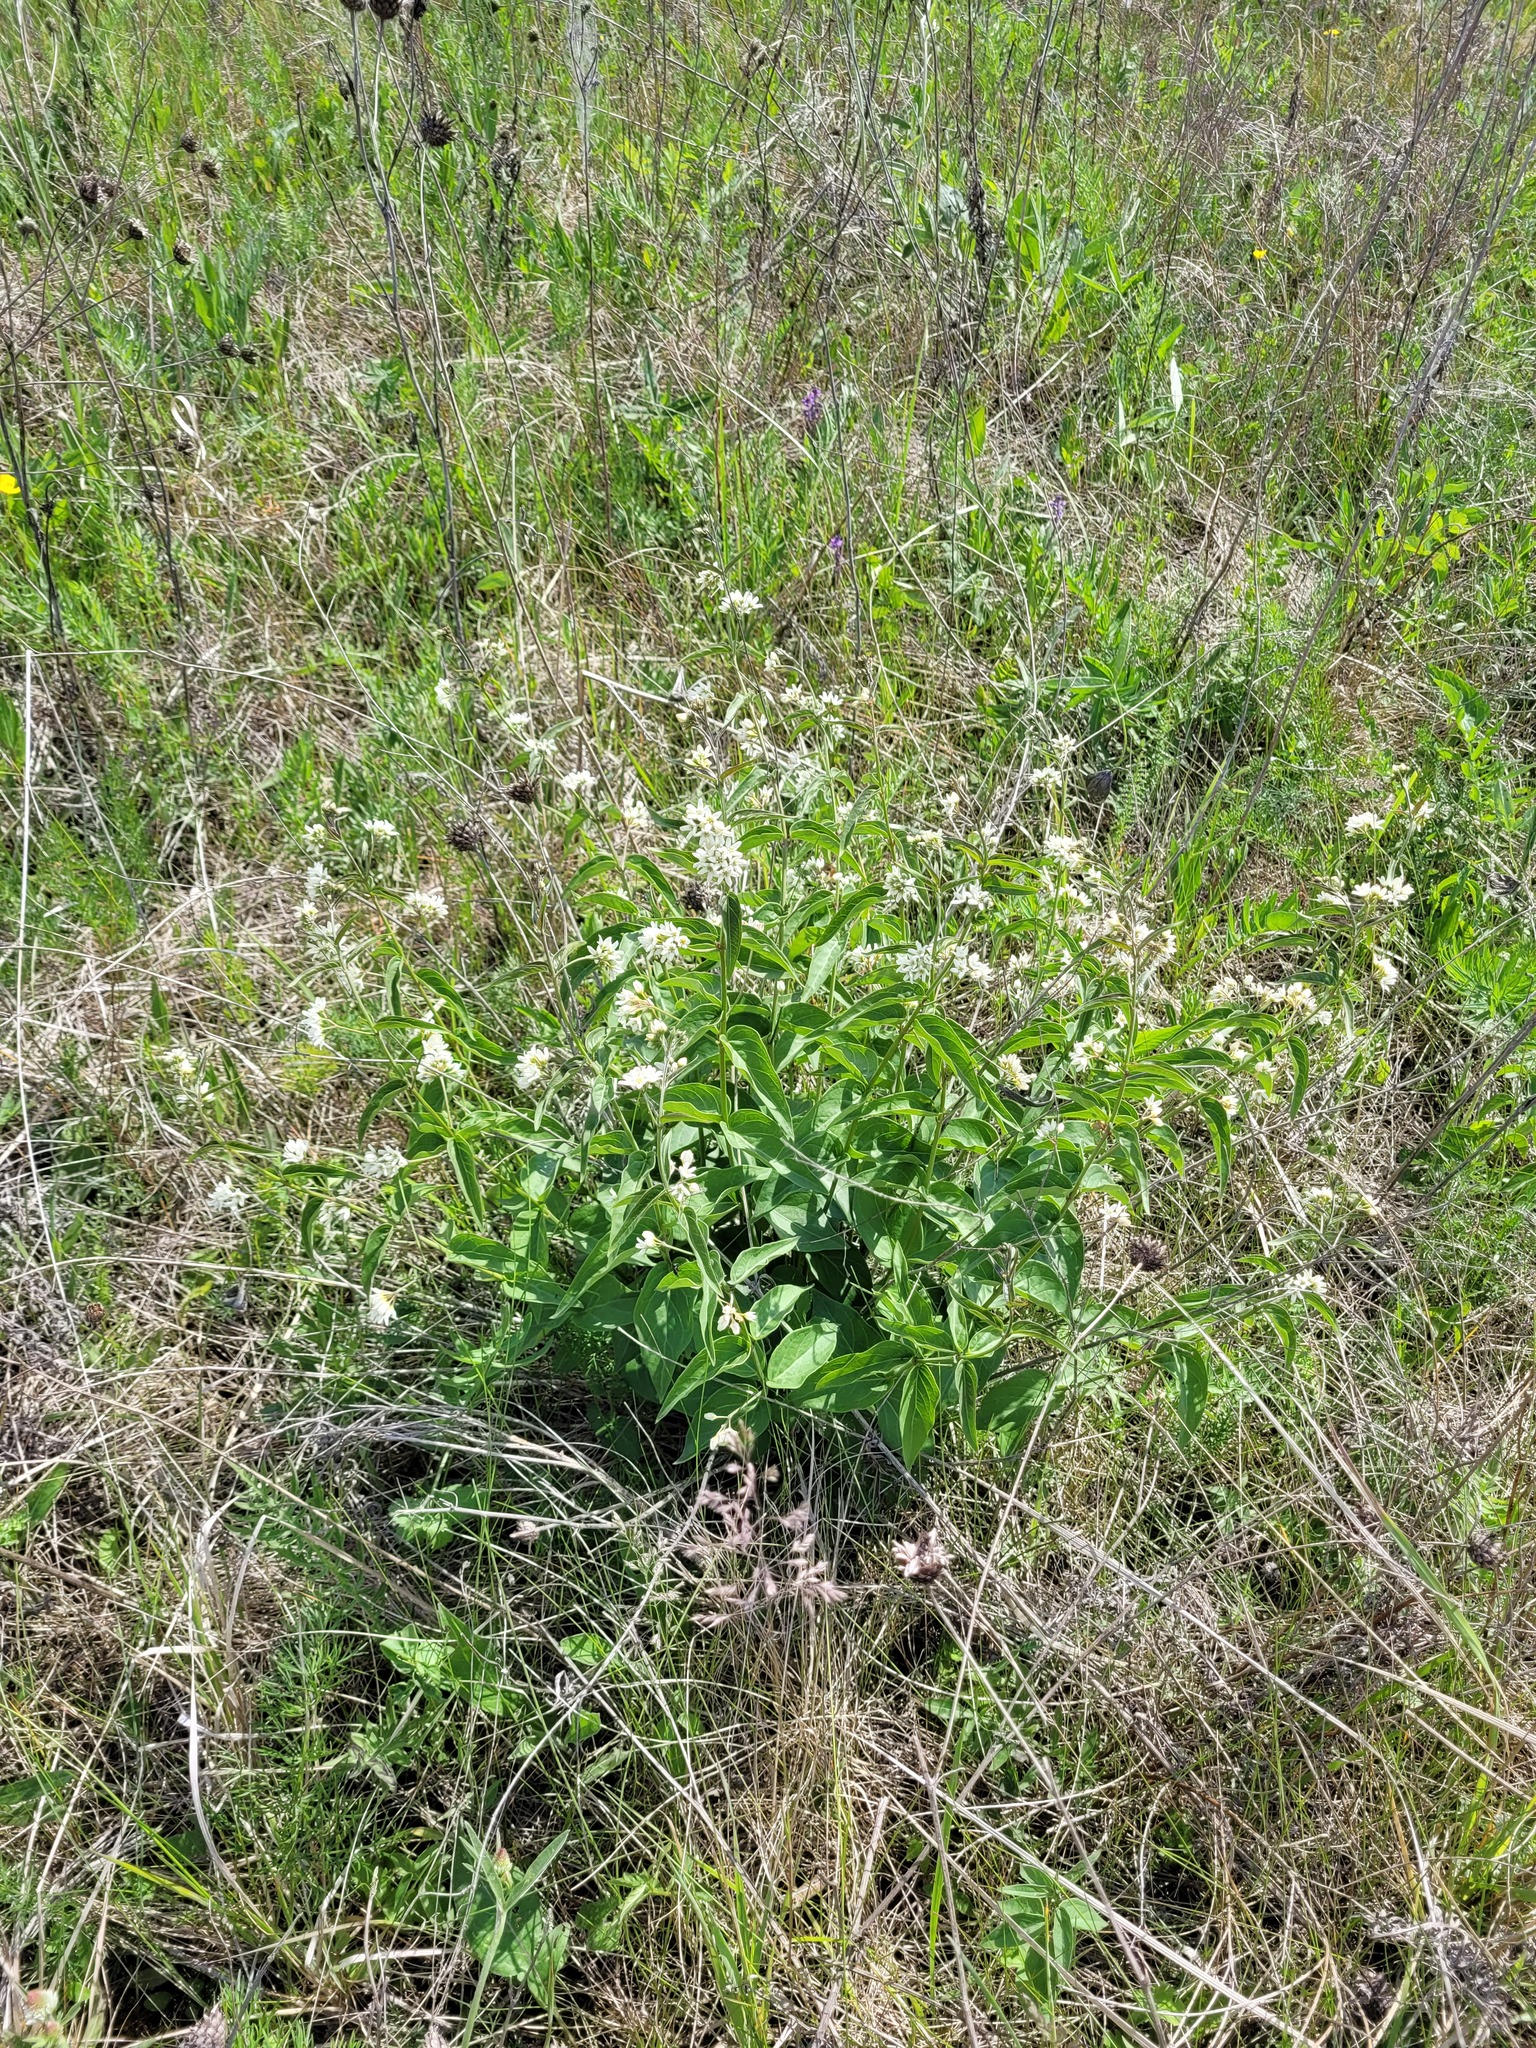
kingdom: Plantae
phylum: Tracheophyta
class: Magnoliopsida
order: Gentianales
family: Apocynaceae
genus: Vincetoxicum
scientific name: Vincetoxicum hirundinaria
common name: White swallowwort
